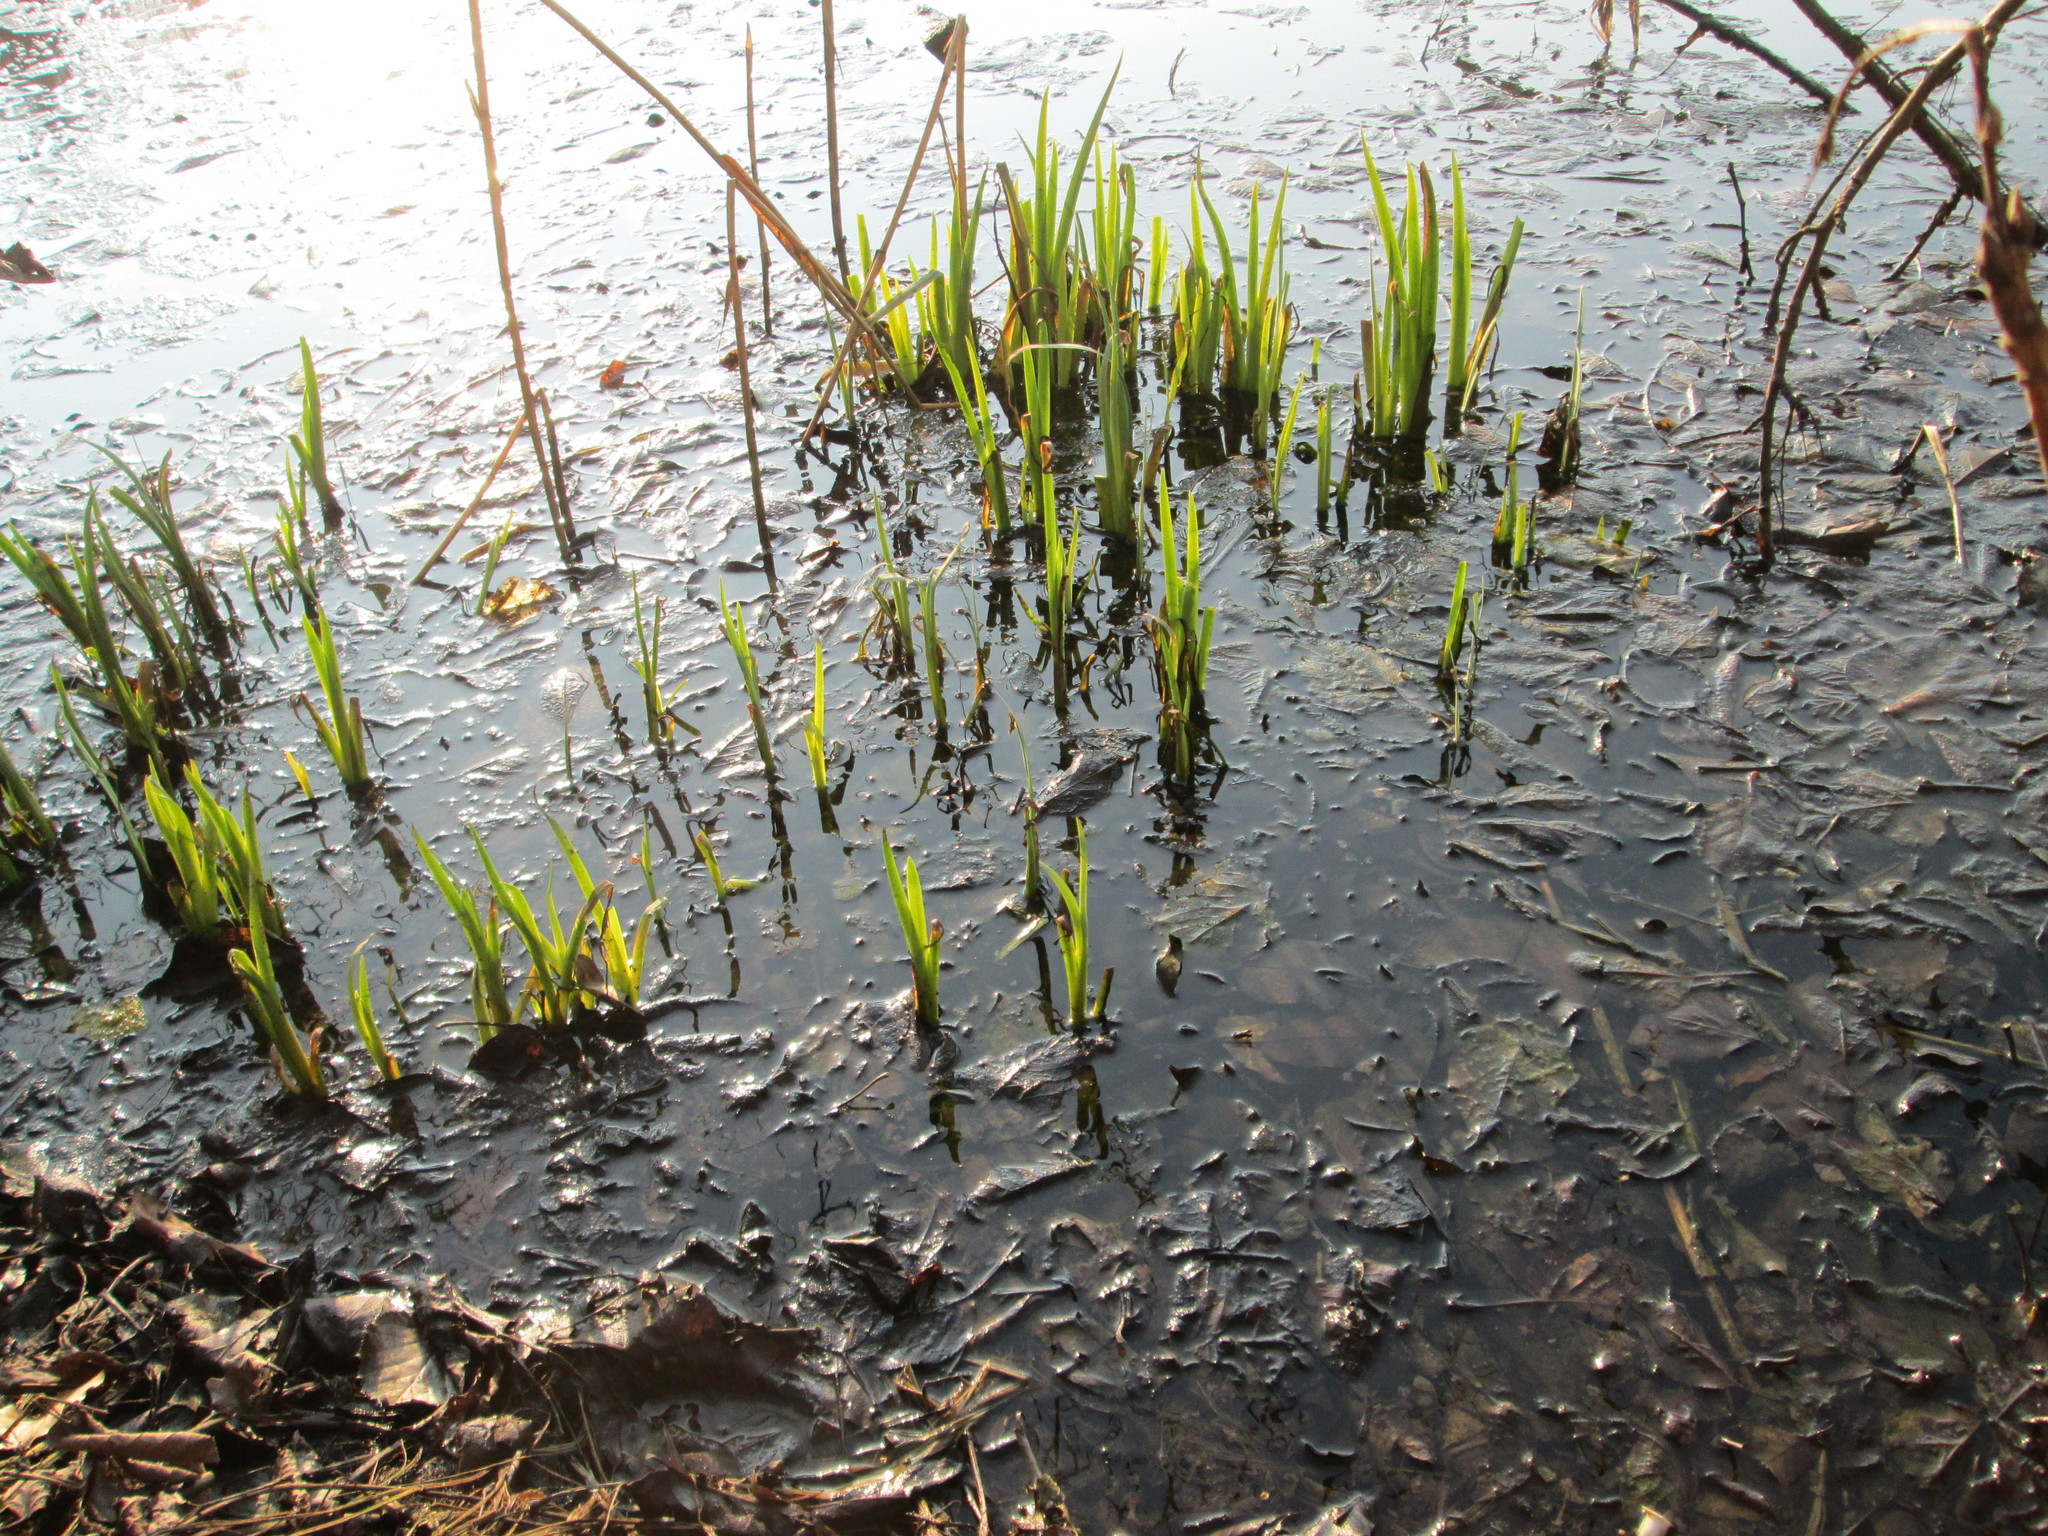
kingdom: Plantae
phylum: Tracheophyta
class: Liliopsida
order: Asparagales
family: Iridaceae
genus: Iris
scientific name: Iris pseudacorus
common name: Yellow flag
